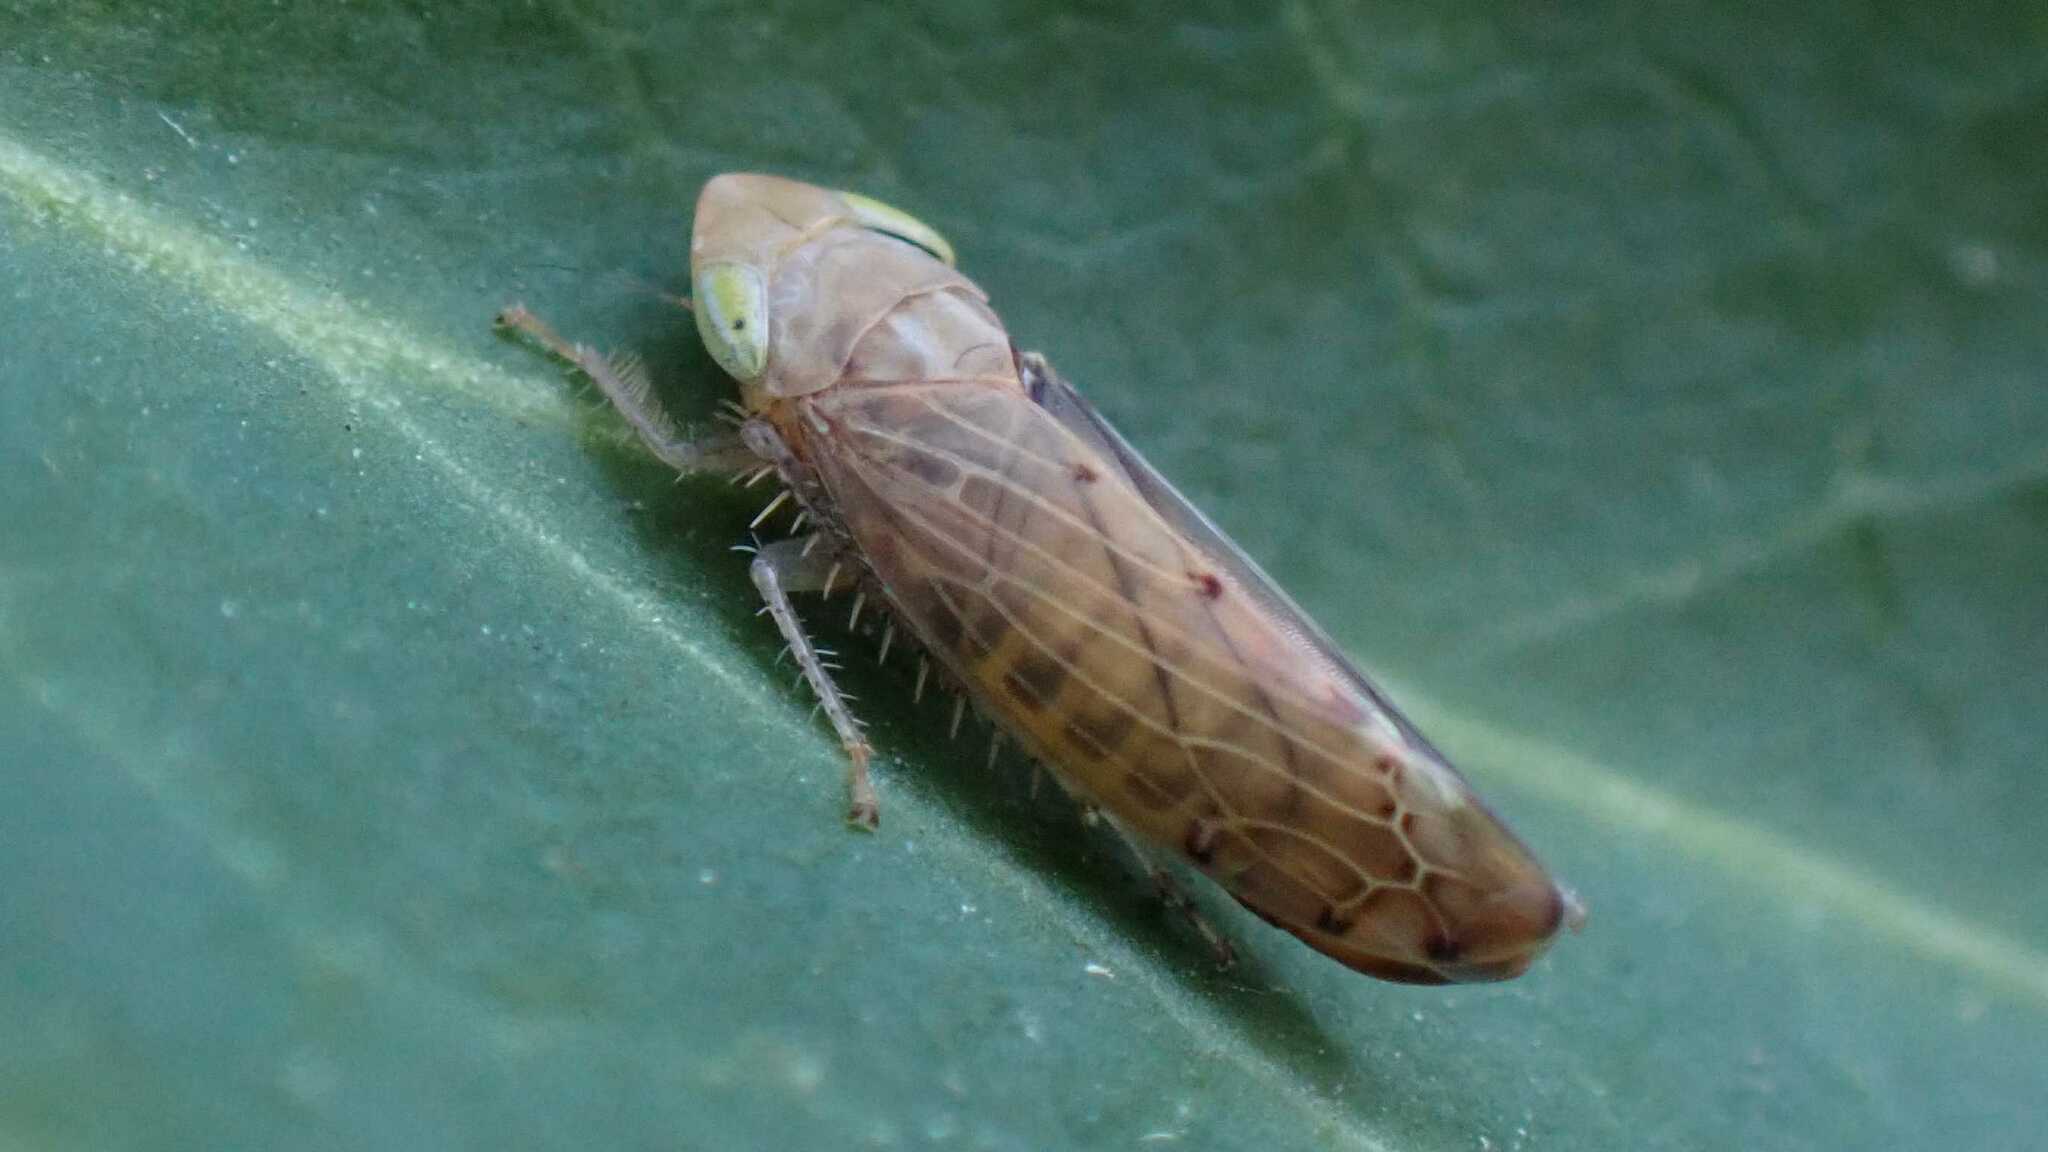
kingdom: Animalia
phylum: Arthropoda
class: Insecta
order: Hemiptera
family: Cicadellidae
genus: Synophropsis
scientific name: Synophropsis lauri
